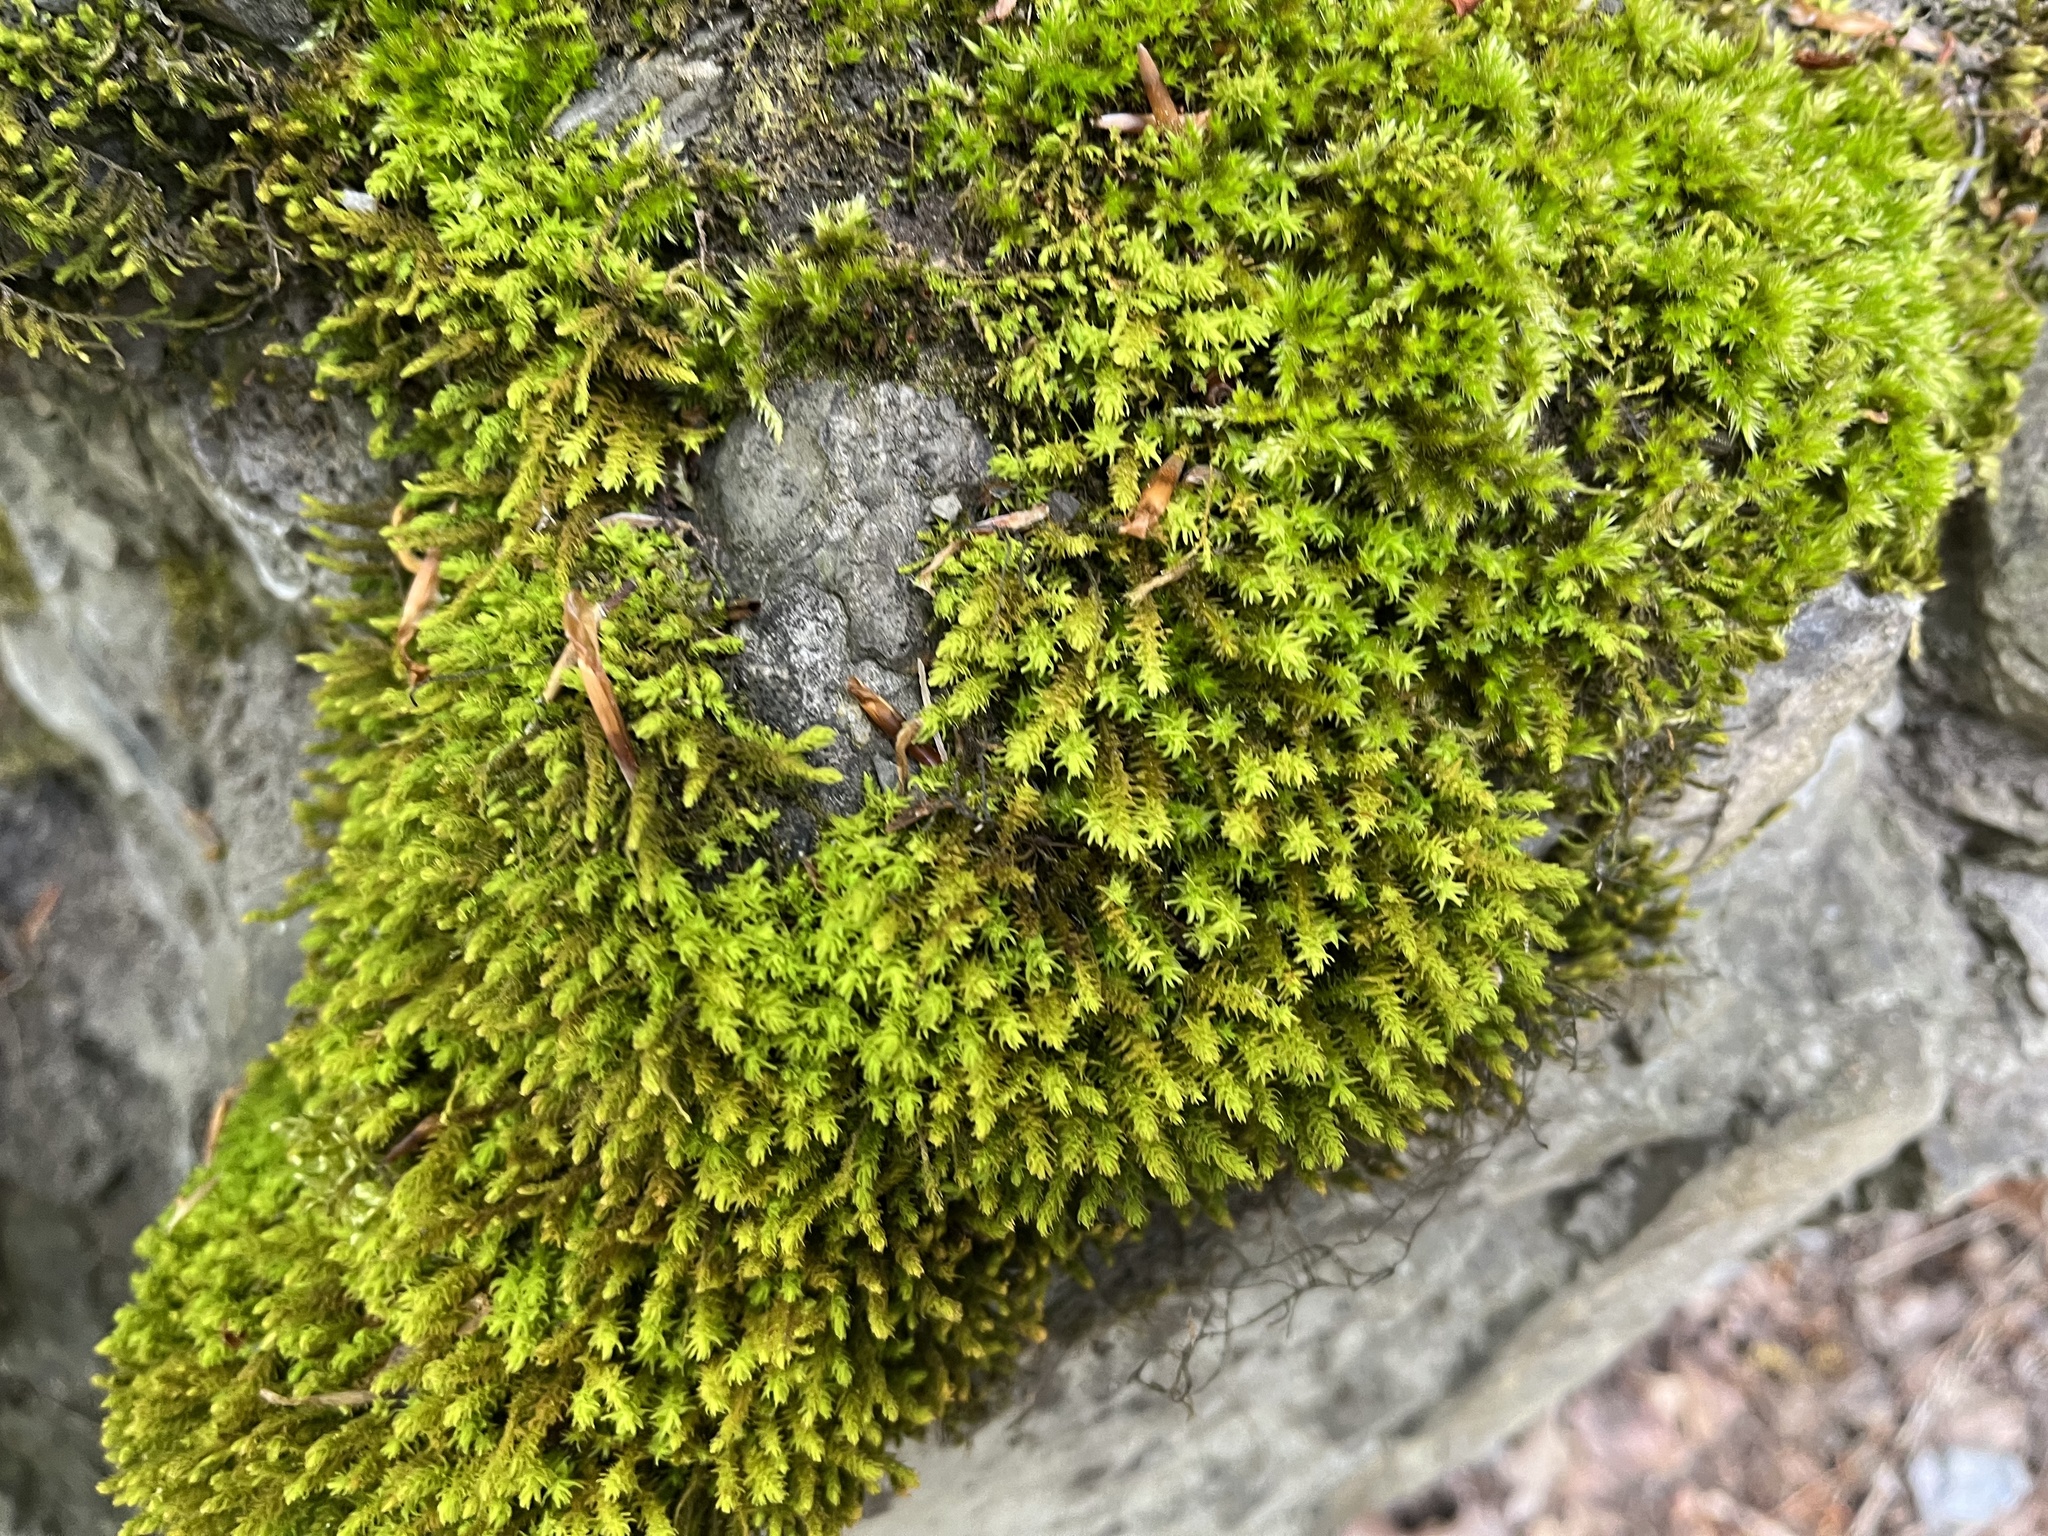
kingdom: Plantae
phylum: Bryophyta
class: Bryopsida
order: Hypnales
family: Anomodontaceae
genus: Anomodon
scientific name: Anomodon viticulosus
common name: Tall anomodon
